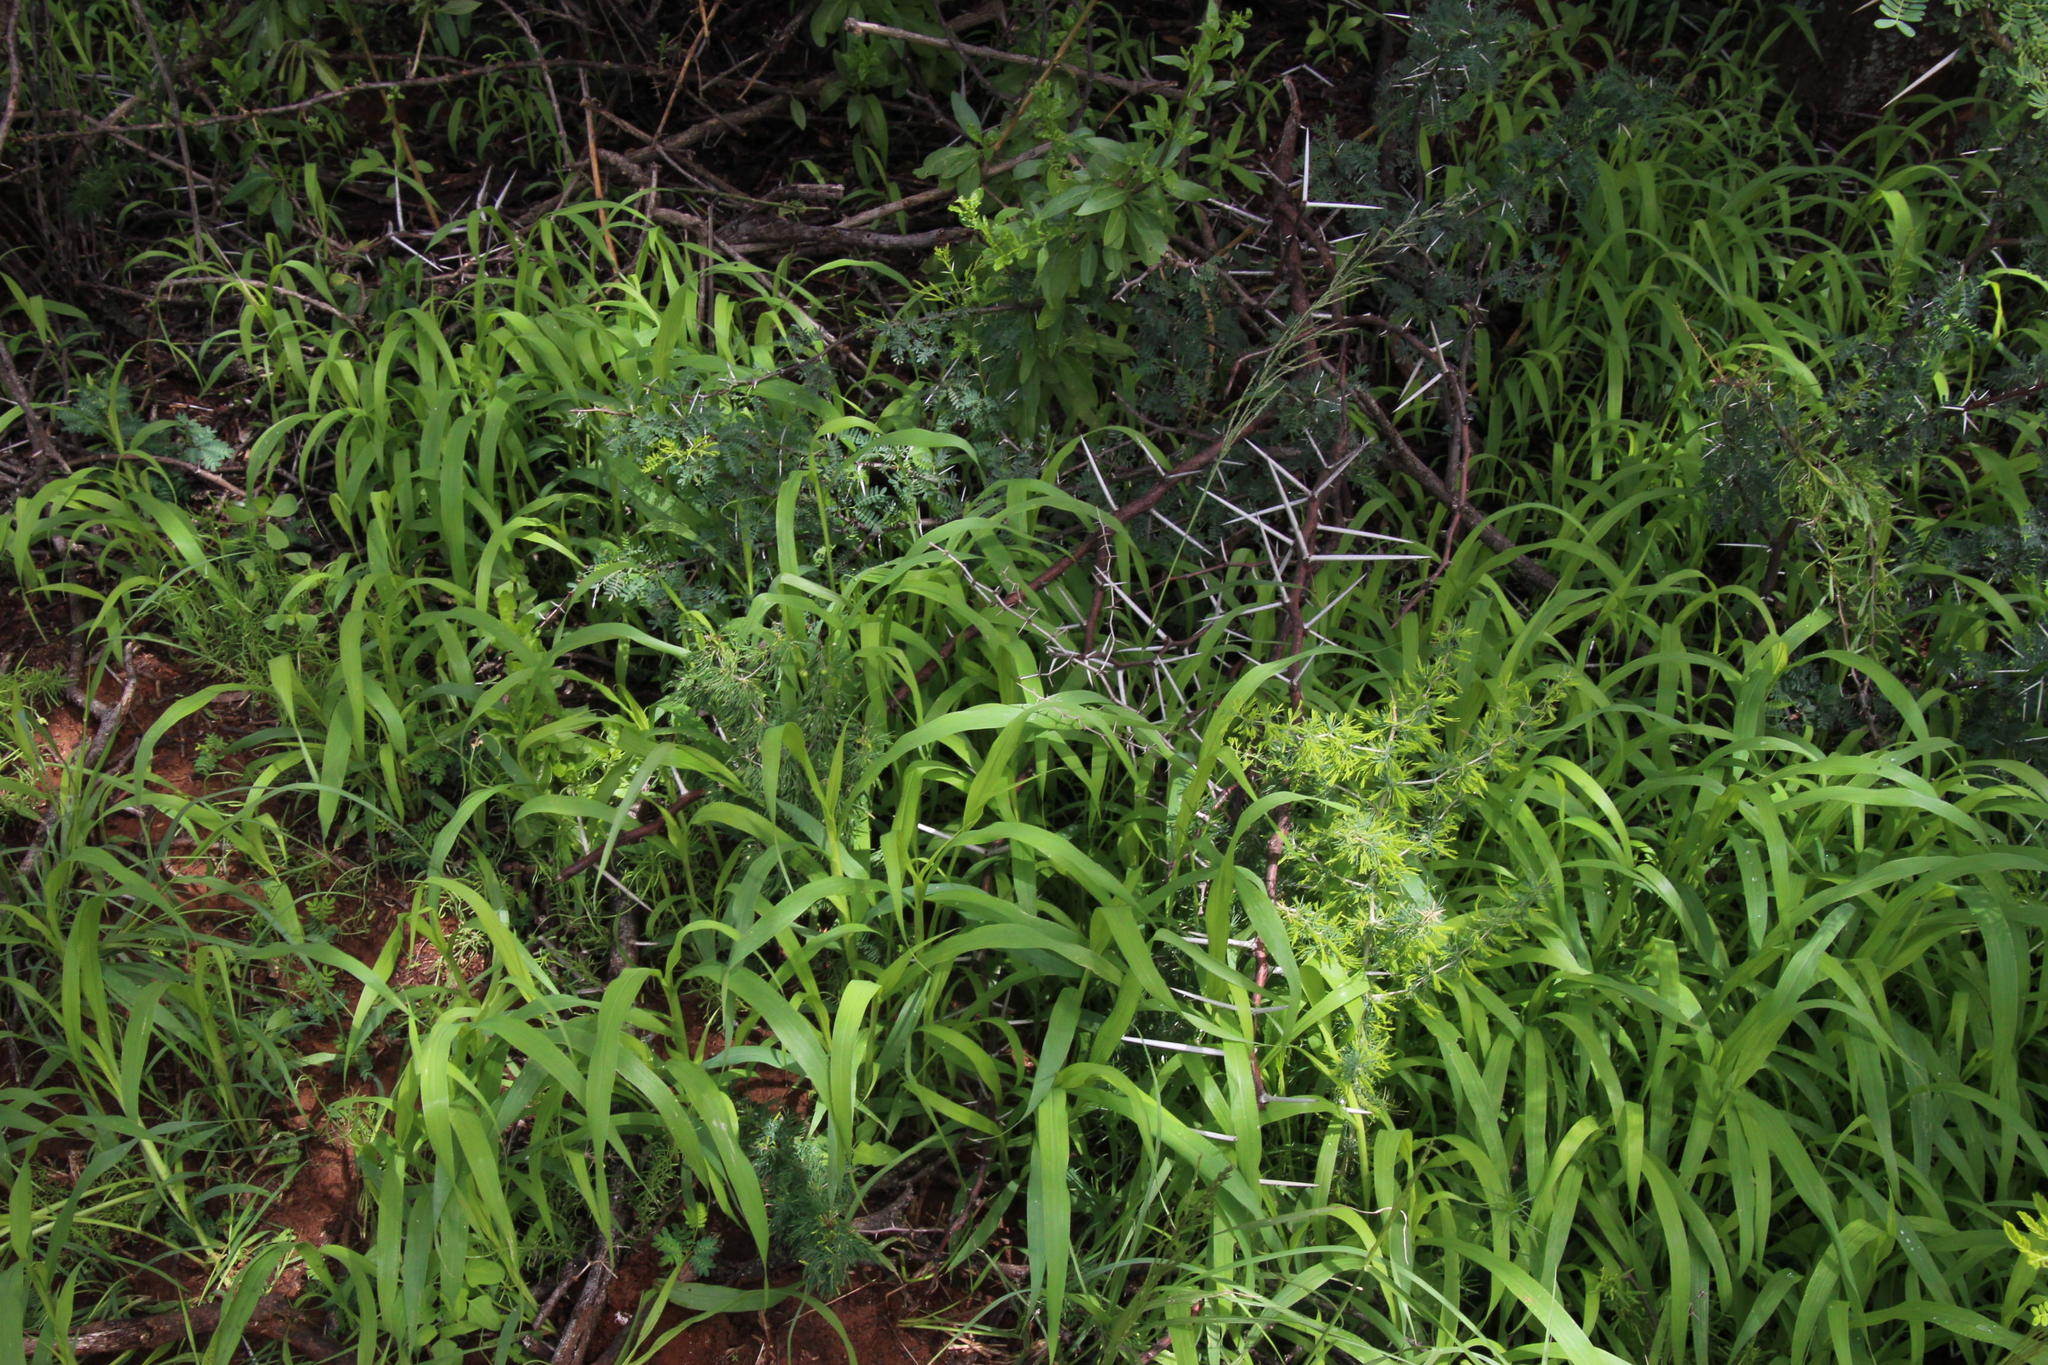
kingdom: Plantae
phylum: Tracheophyta
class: Liliopsida
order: Asparagales
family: Asparagaceae
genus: Asparagus
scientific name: Asparagus suaveolens
